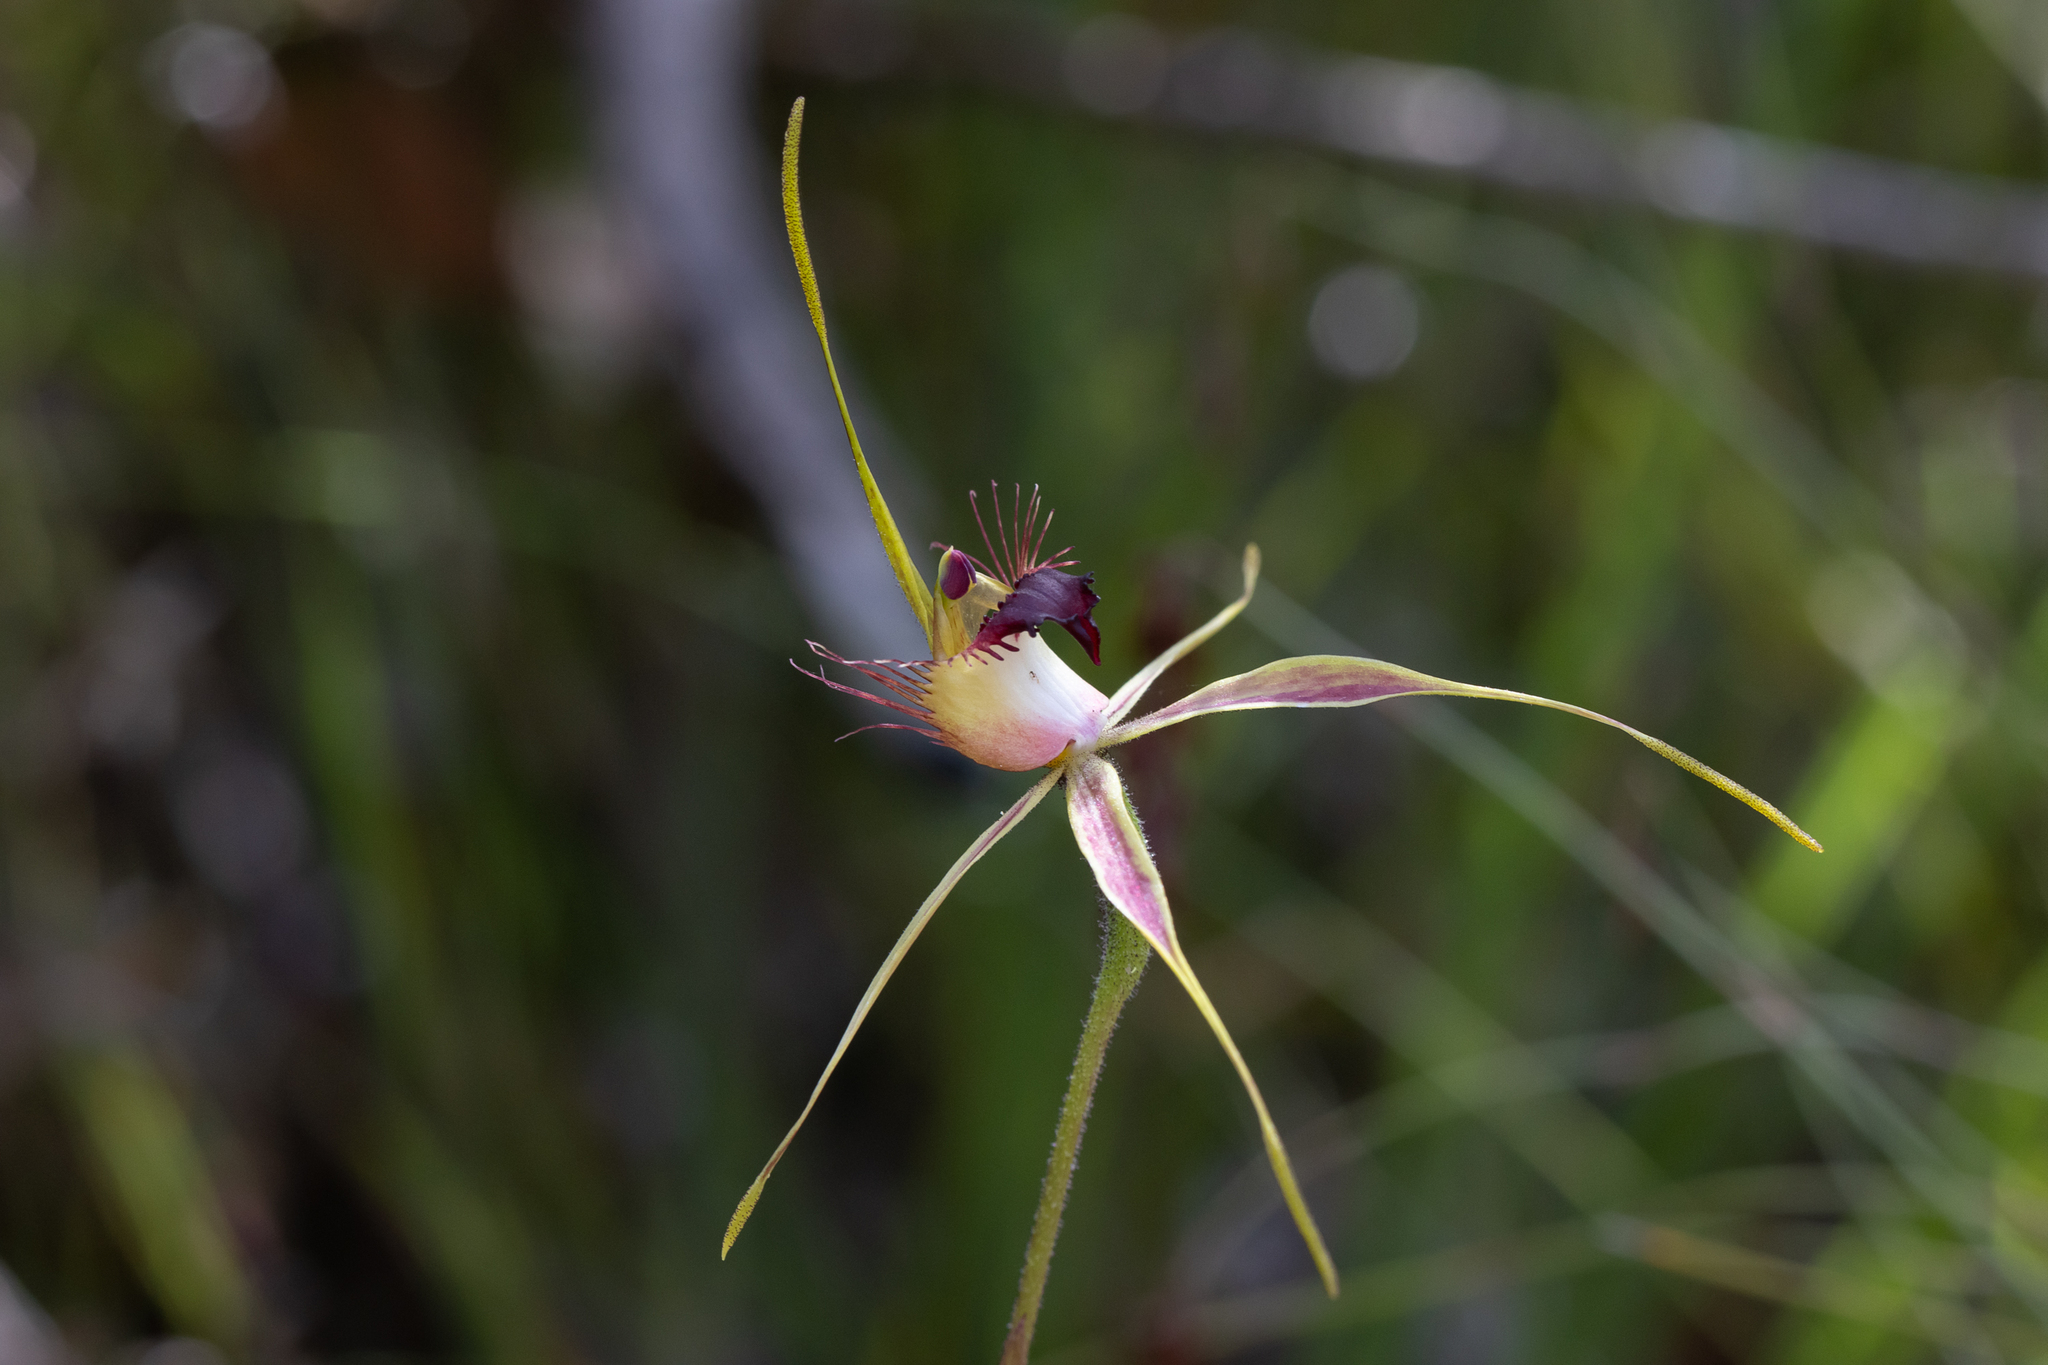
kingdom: Plantae
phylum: Tracheophyta
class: Liliopsida
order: Asparagales
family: Orchidaceae
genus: Caladenia
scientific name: Caladenia brownii
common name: Kari spider orchid
